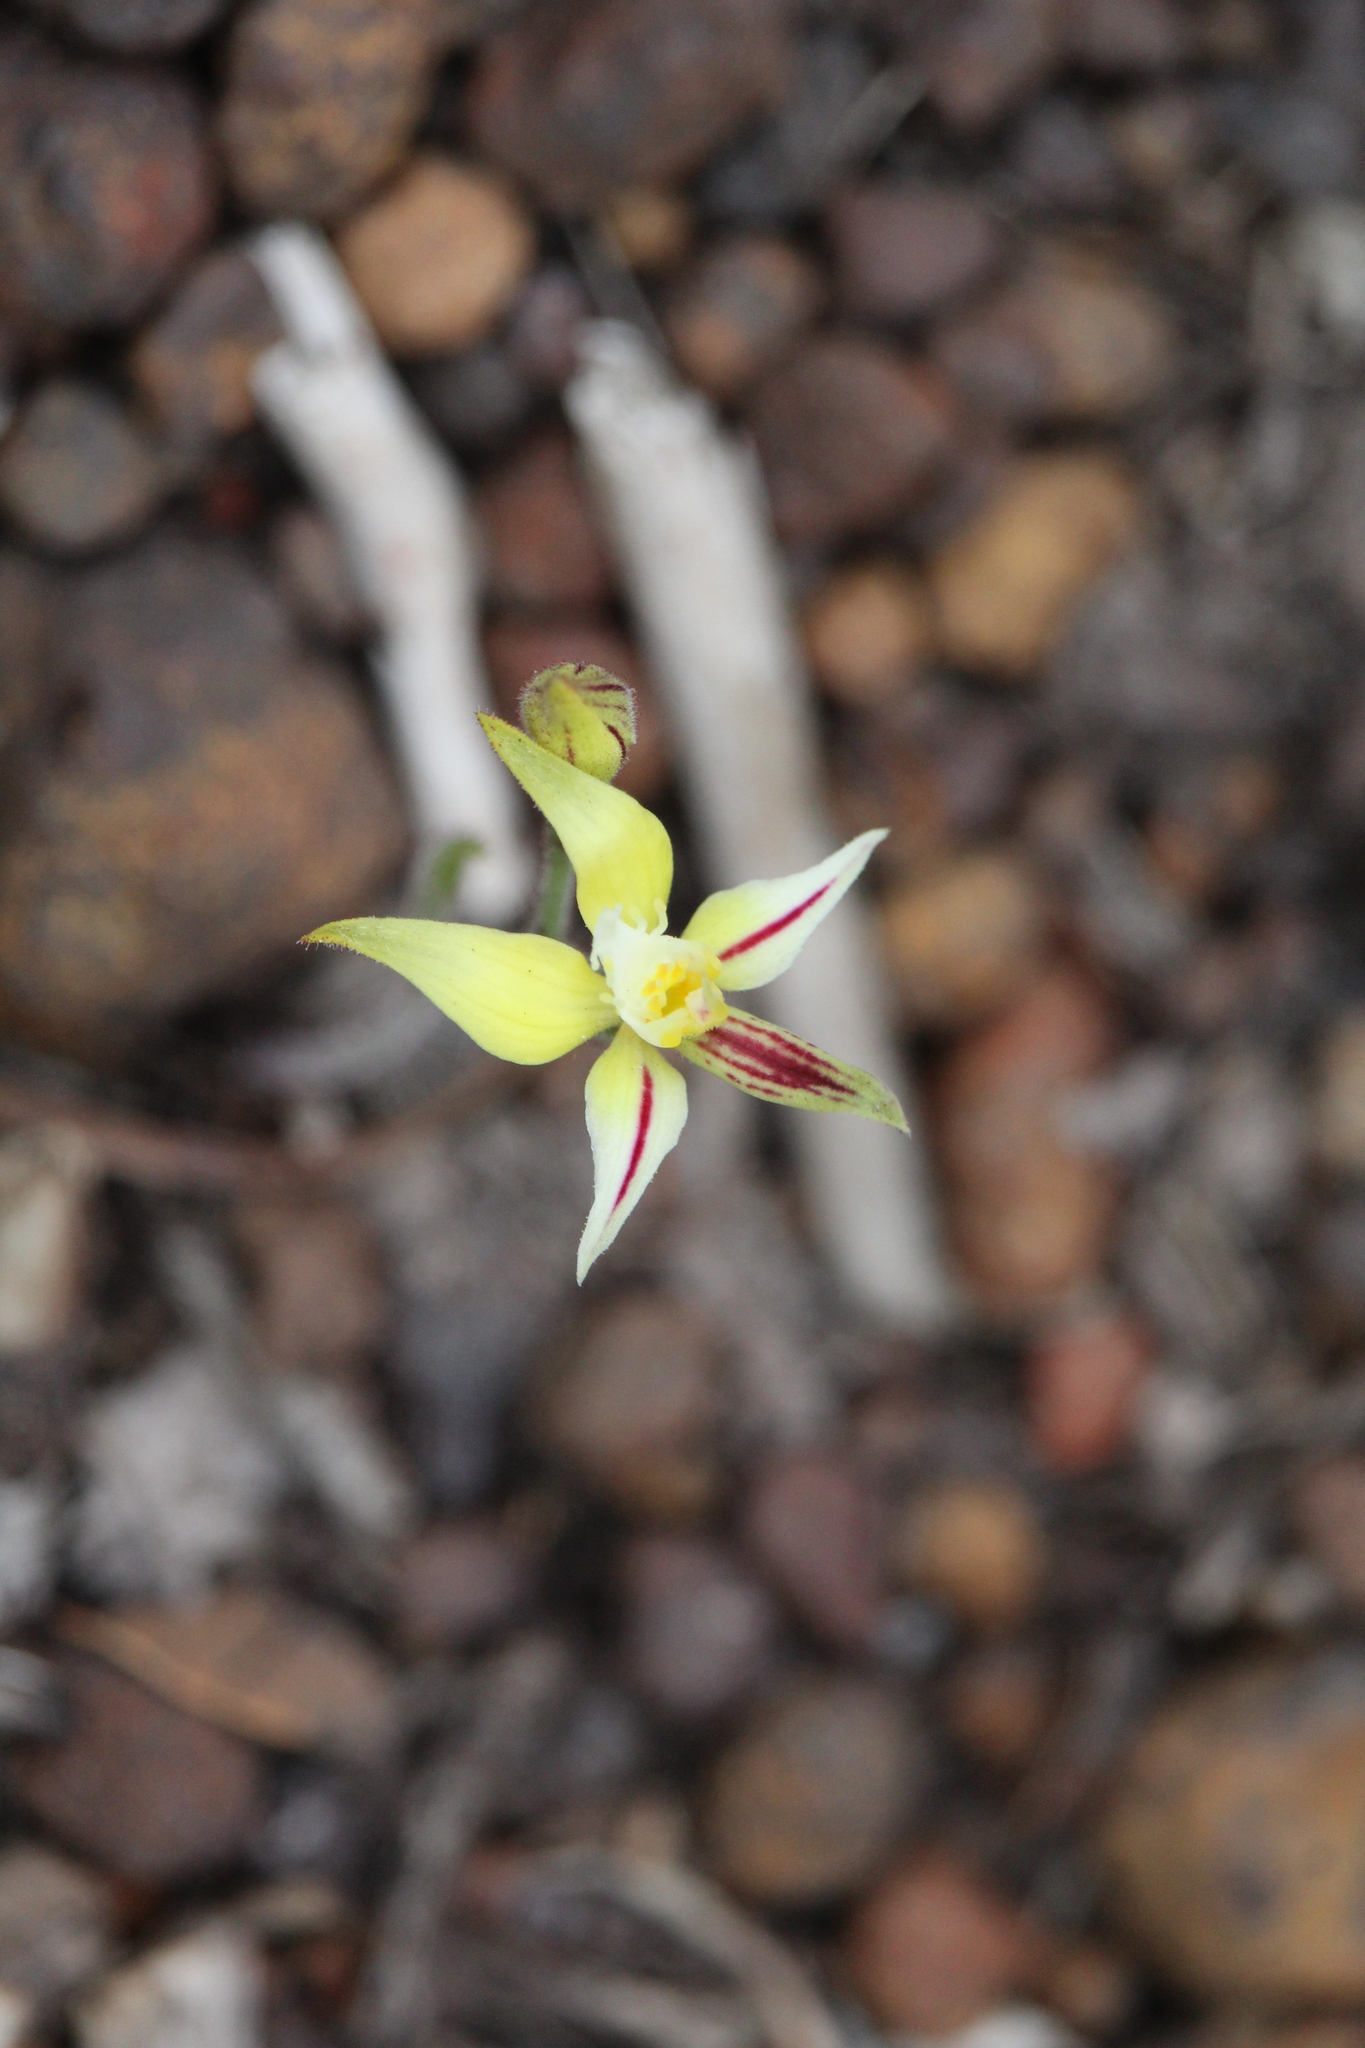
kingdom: Plantae
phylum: Tracheophyta
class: Liliopsida
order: Asparagales
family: Orchidaceae
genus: Caladenia
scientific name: Caladenia flava
